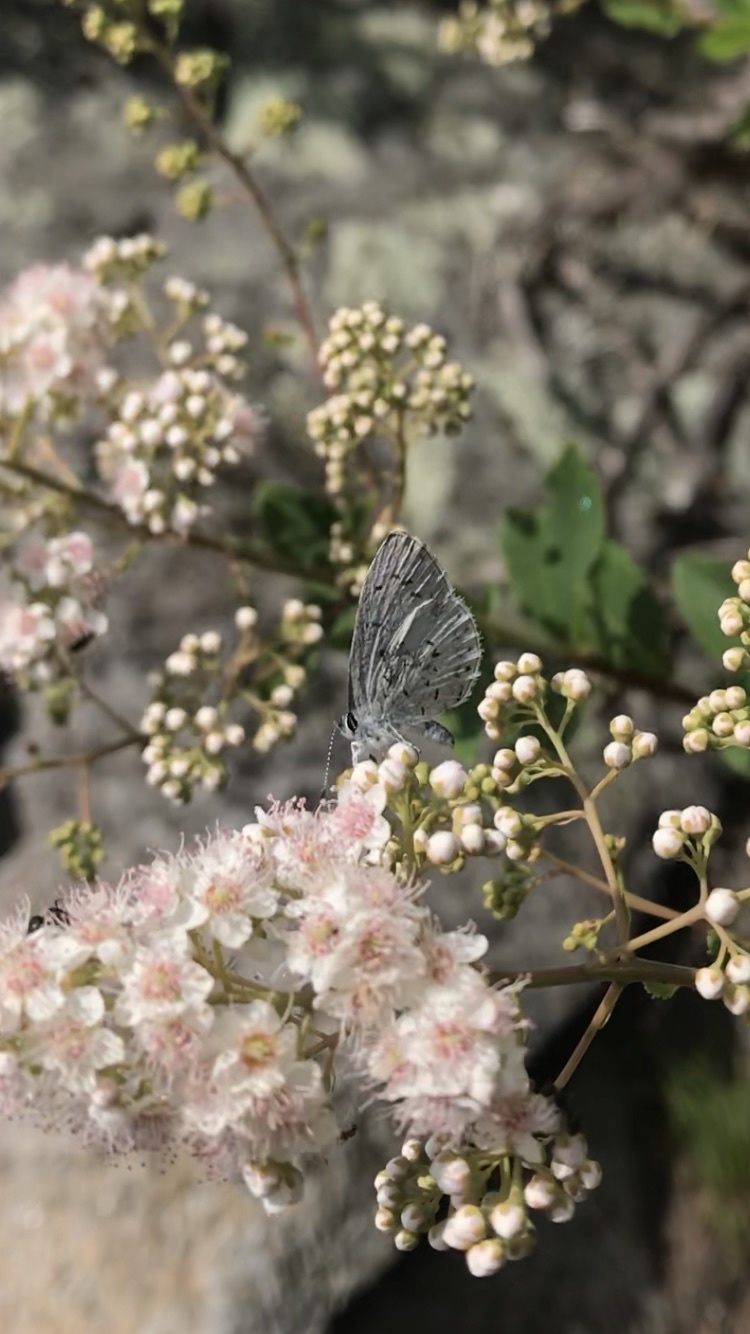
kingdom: Animalia
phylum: Arthropoda
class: Insecta
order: Lepidoptera
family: Lycaenidae
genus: Cyaniris
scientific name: Cyaniris neglecta
